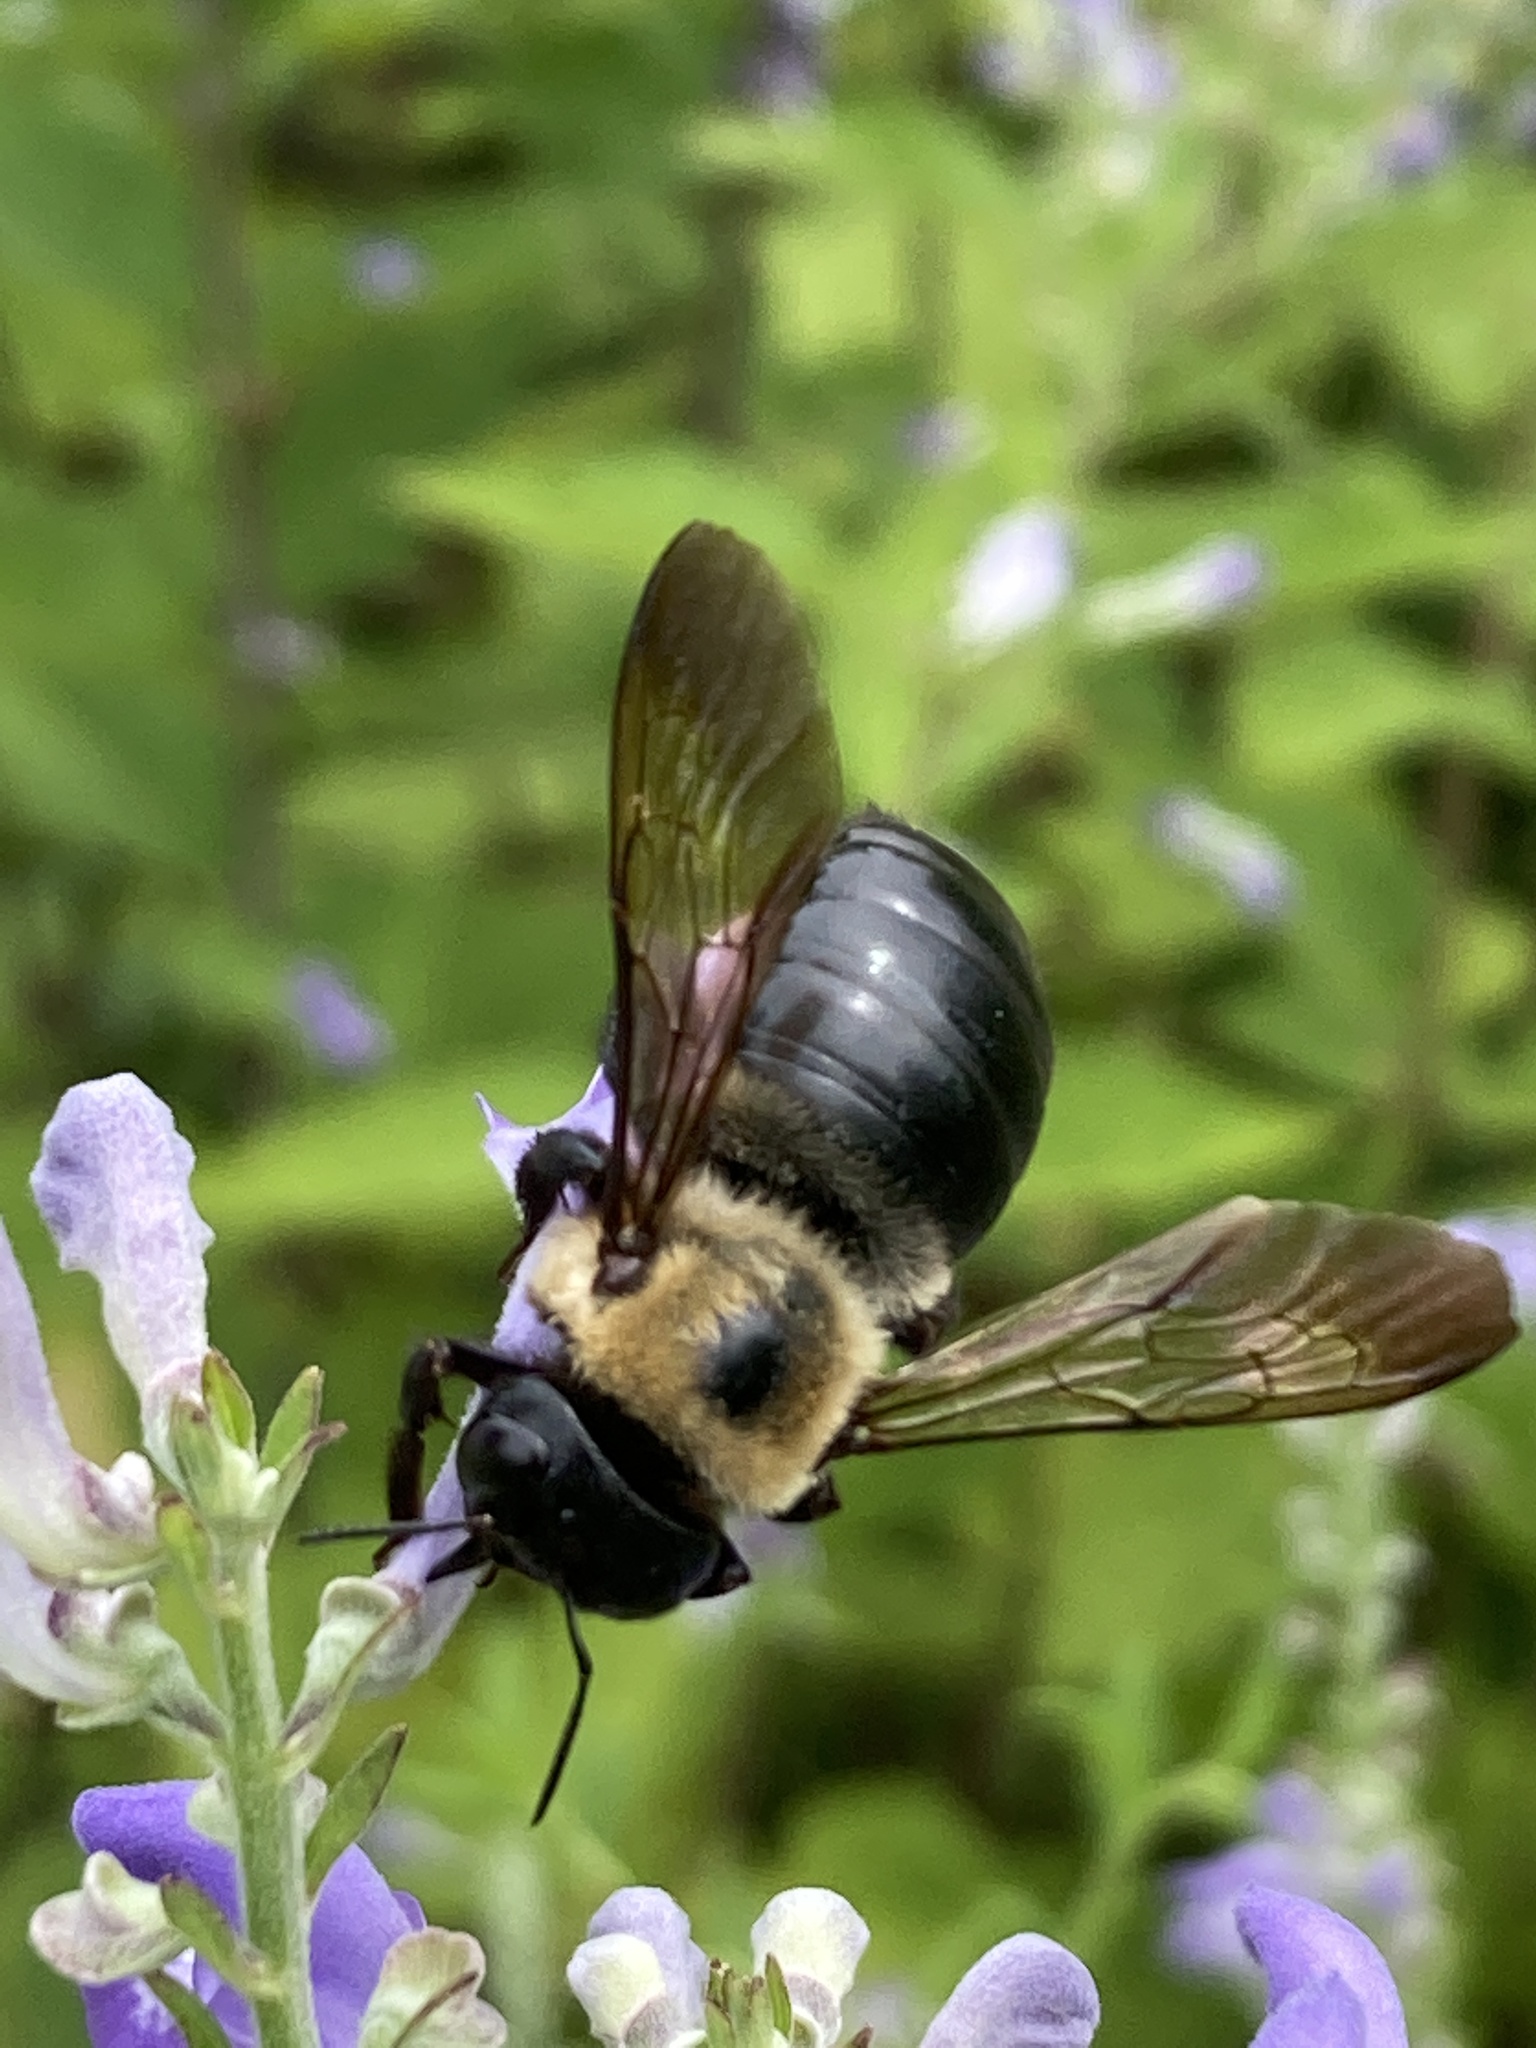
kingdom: Animalia
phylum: Arthropoda
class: Insecta
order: Hymenoptera
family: Apidae
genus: Xylocopa
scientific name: Xylocopa virginica
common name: Carpenter bee
